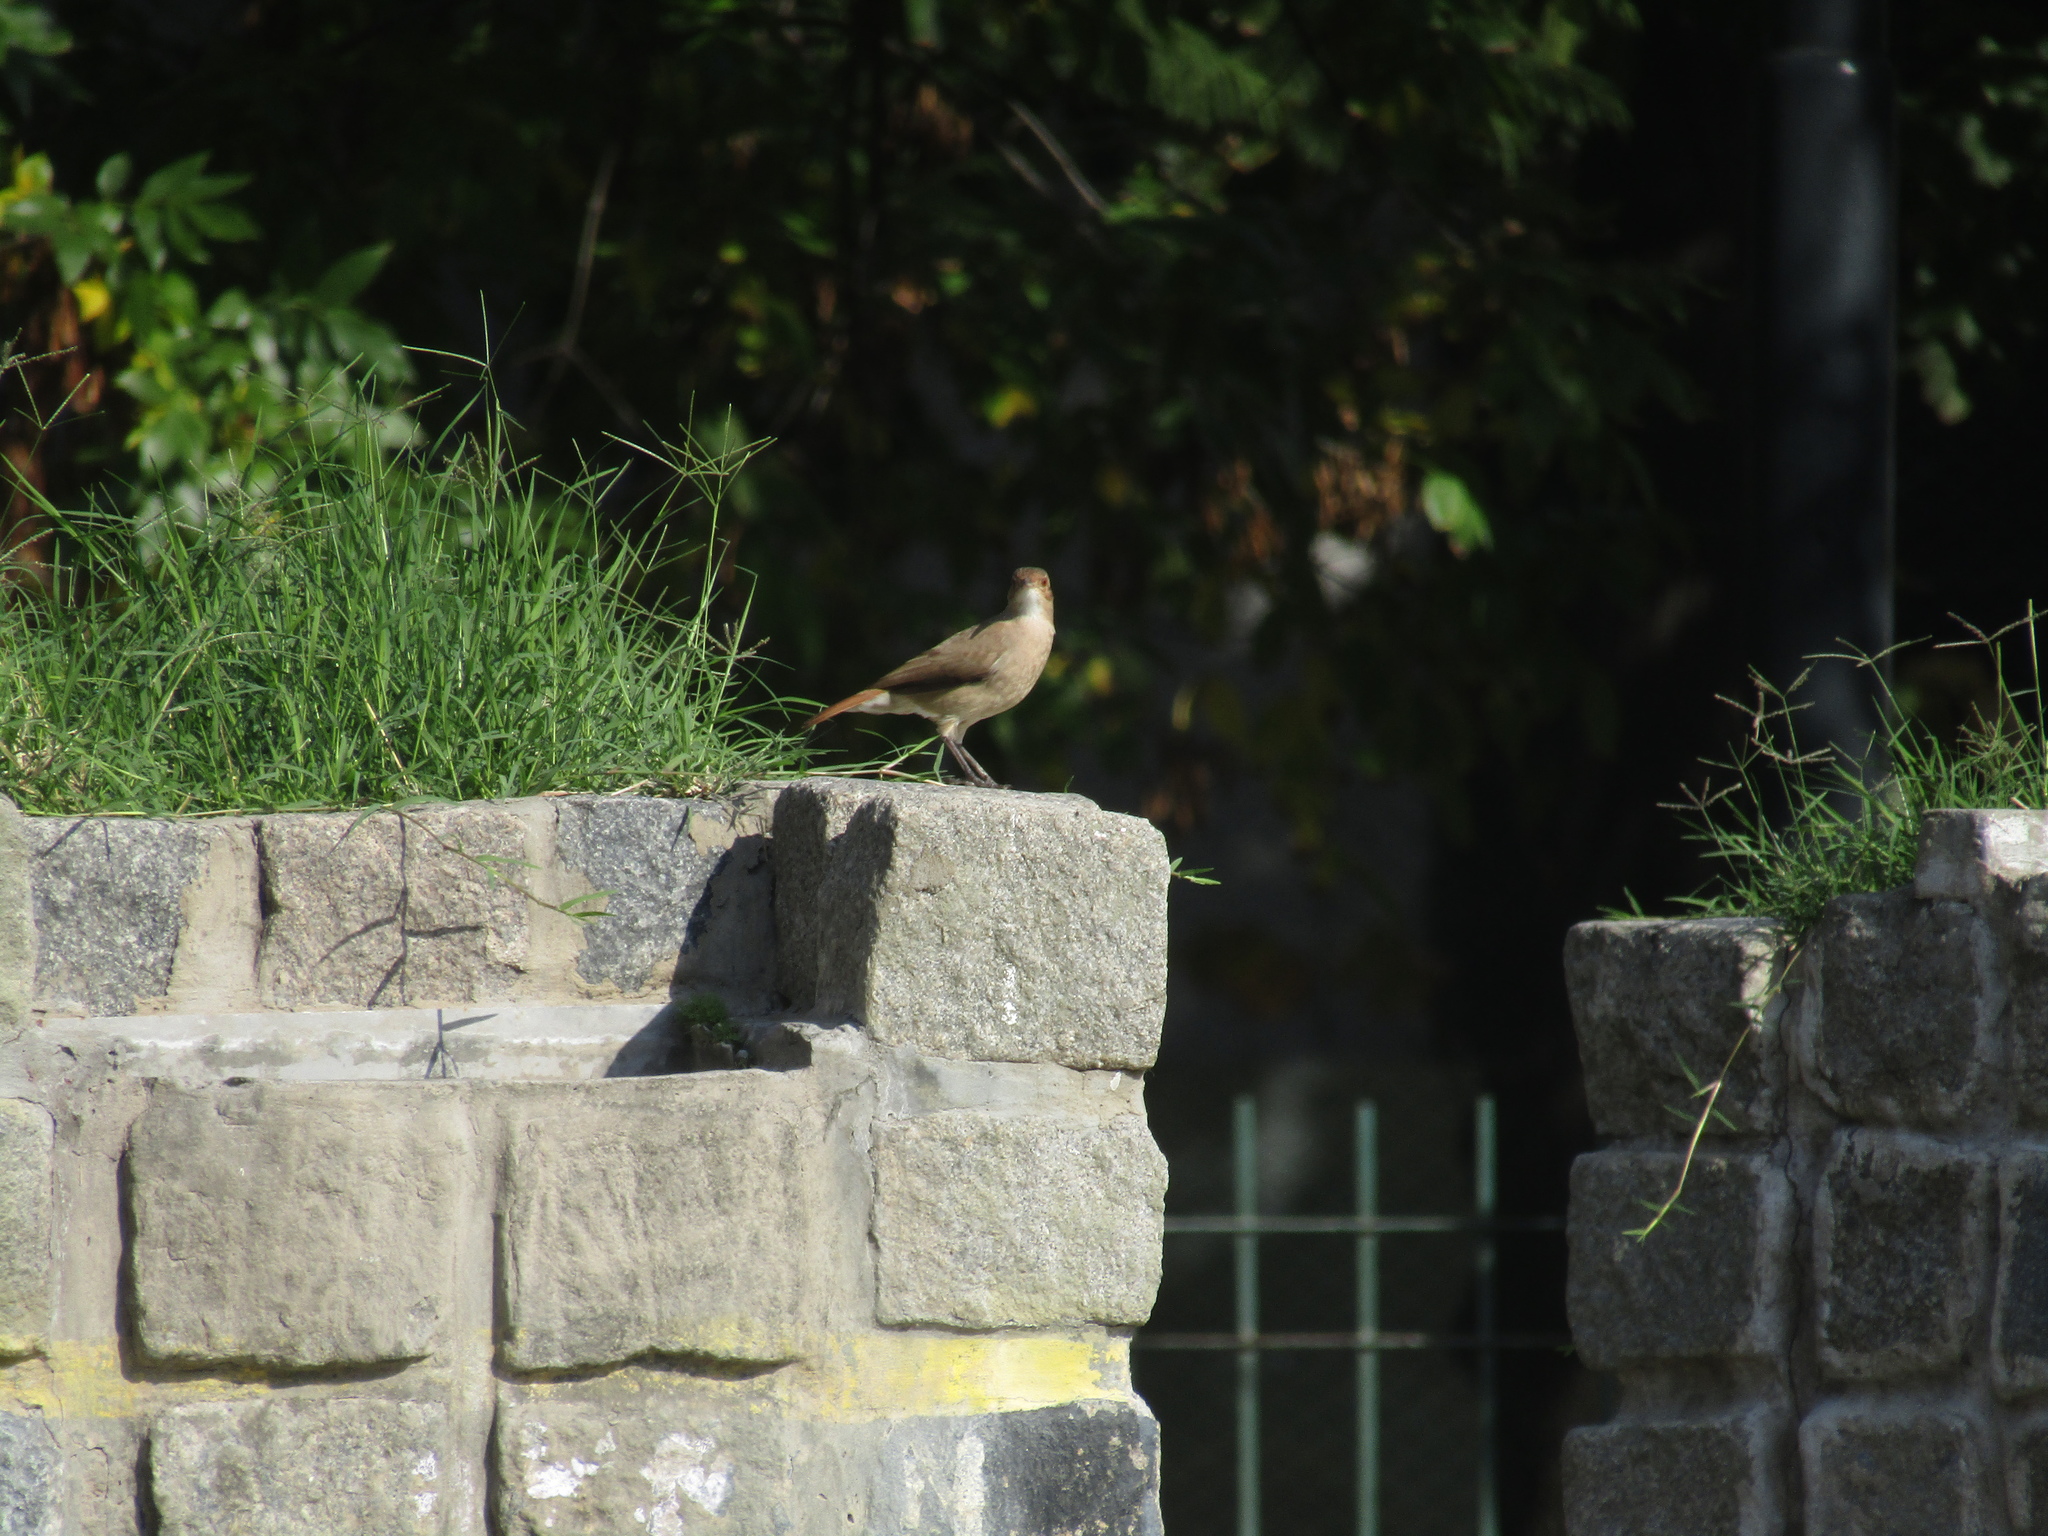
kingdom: Animalia
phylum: Chordata
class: Aves
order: Passeriformes
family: Furnariidae
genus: Furnarius
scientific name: Furnarius rufus
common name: Rufous hornero
